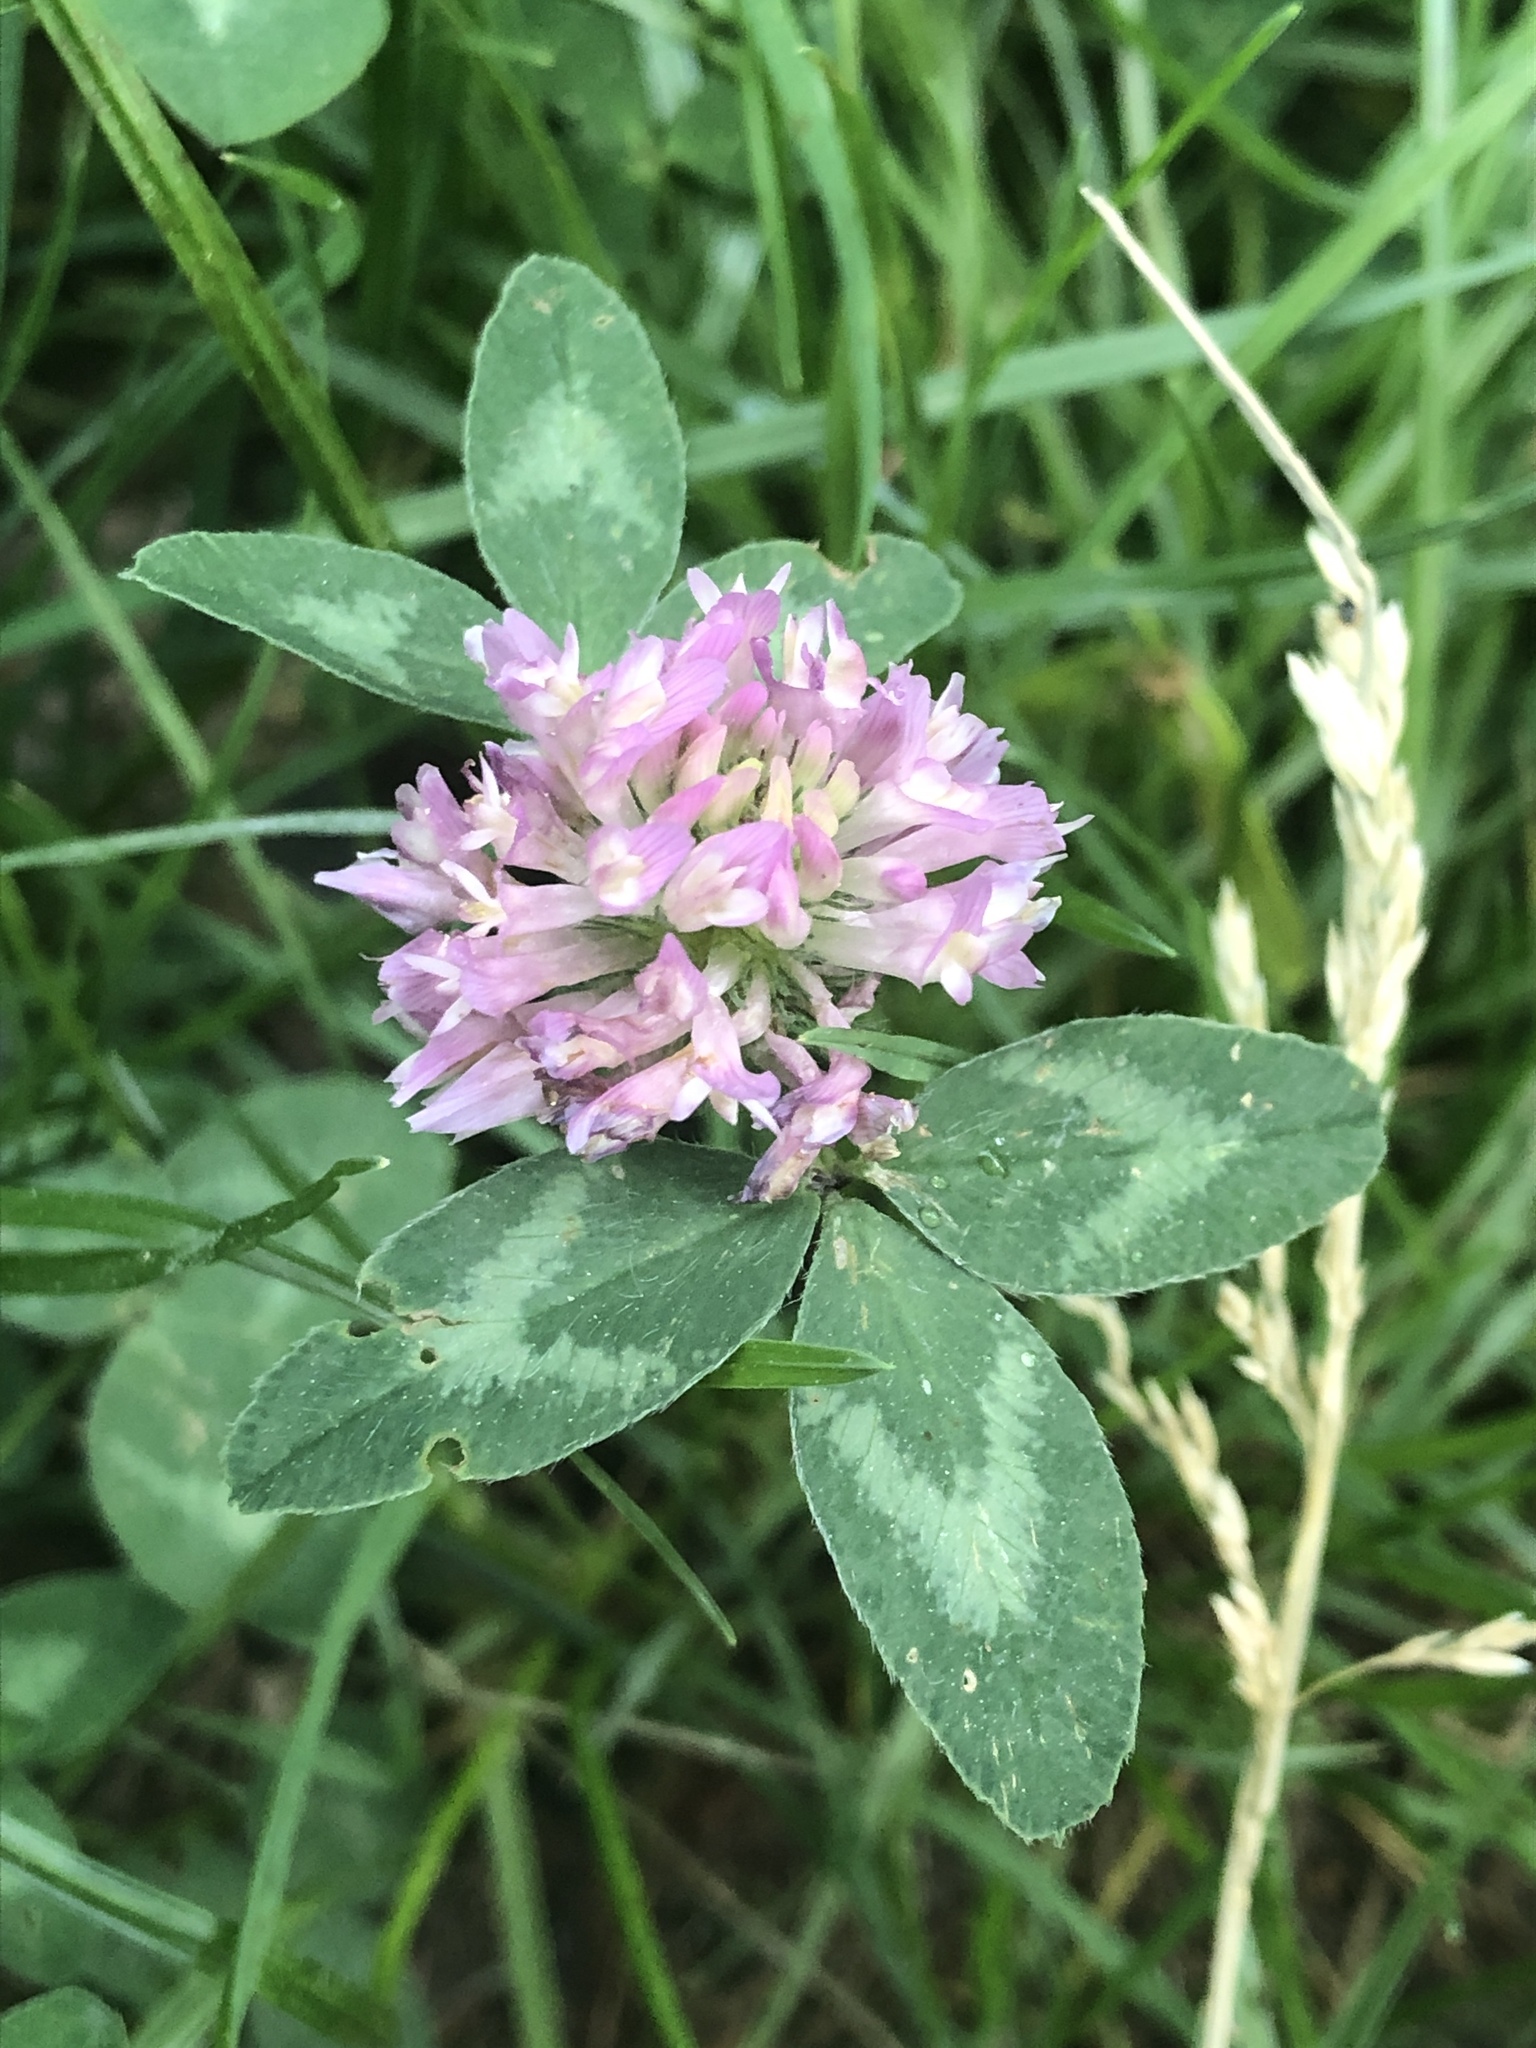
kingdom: Plantae
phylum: Tracheophyta
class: Magnoliopsida
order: Fabales
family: Fabaceae
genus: Trifolium
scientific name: Trifolium pratense
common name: Red clover
